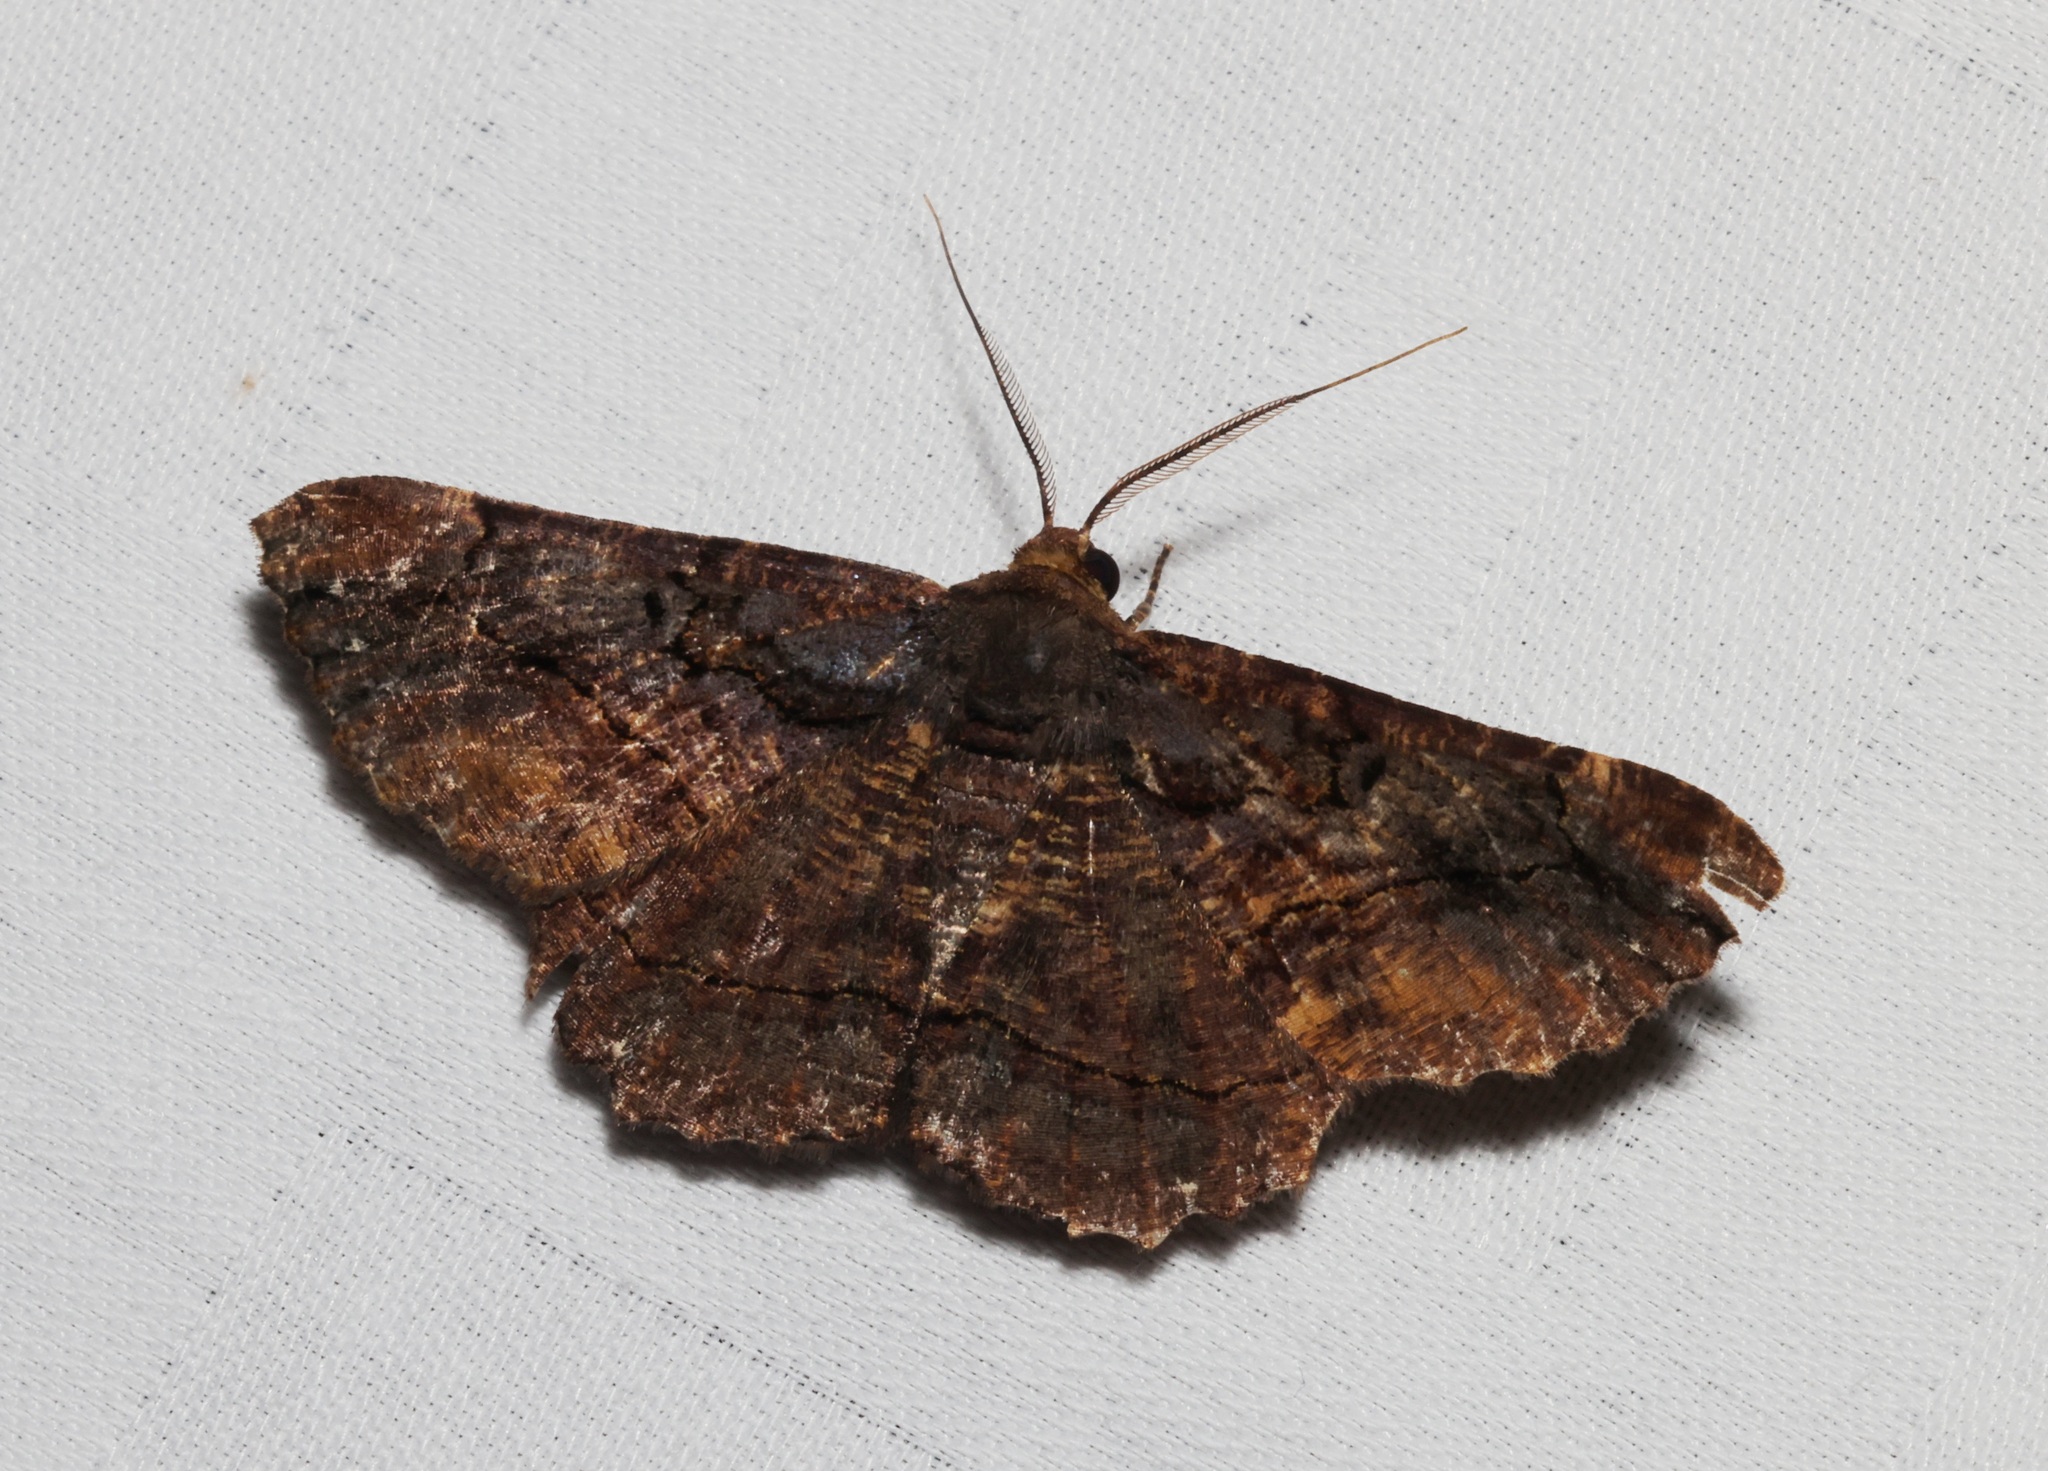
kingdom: Animalia
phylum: Arthropoda
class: Insecta
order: Lepidoptera
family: Geometridae
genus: Dasyboarmia
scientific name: Dasyboarmia subpilosa
